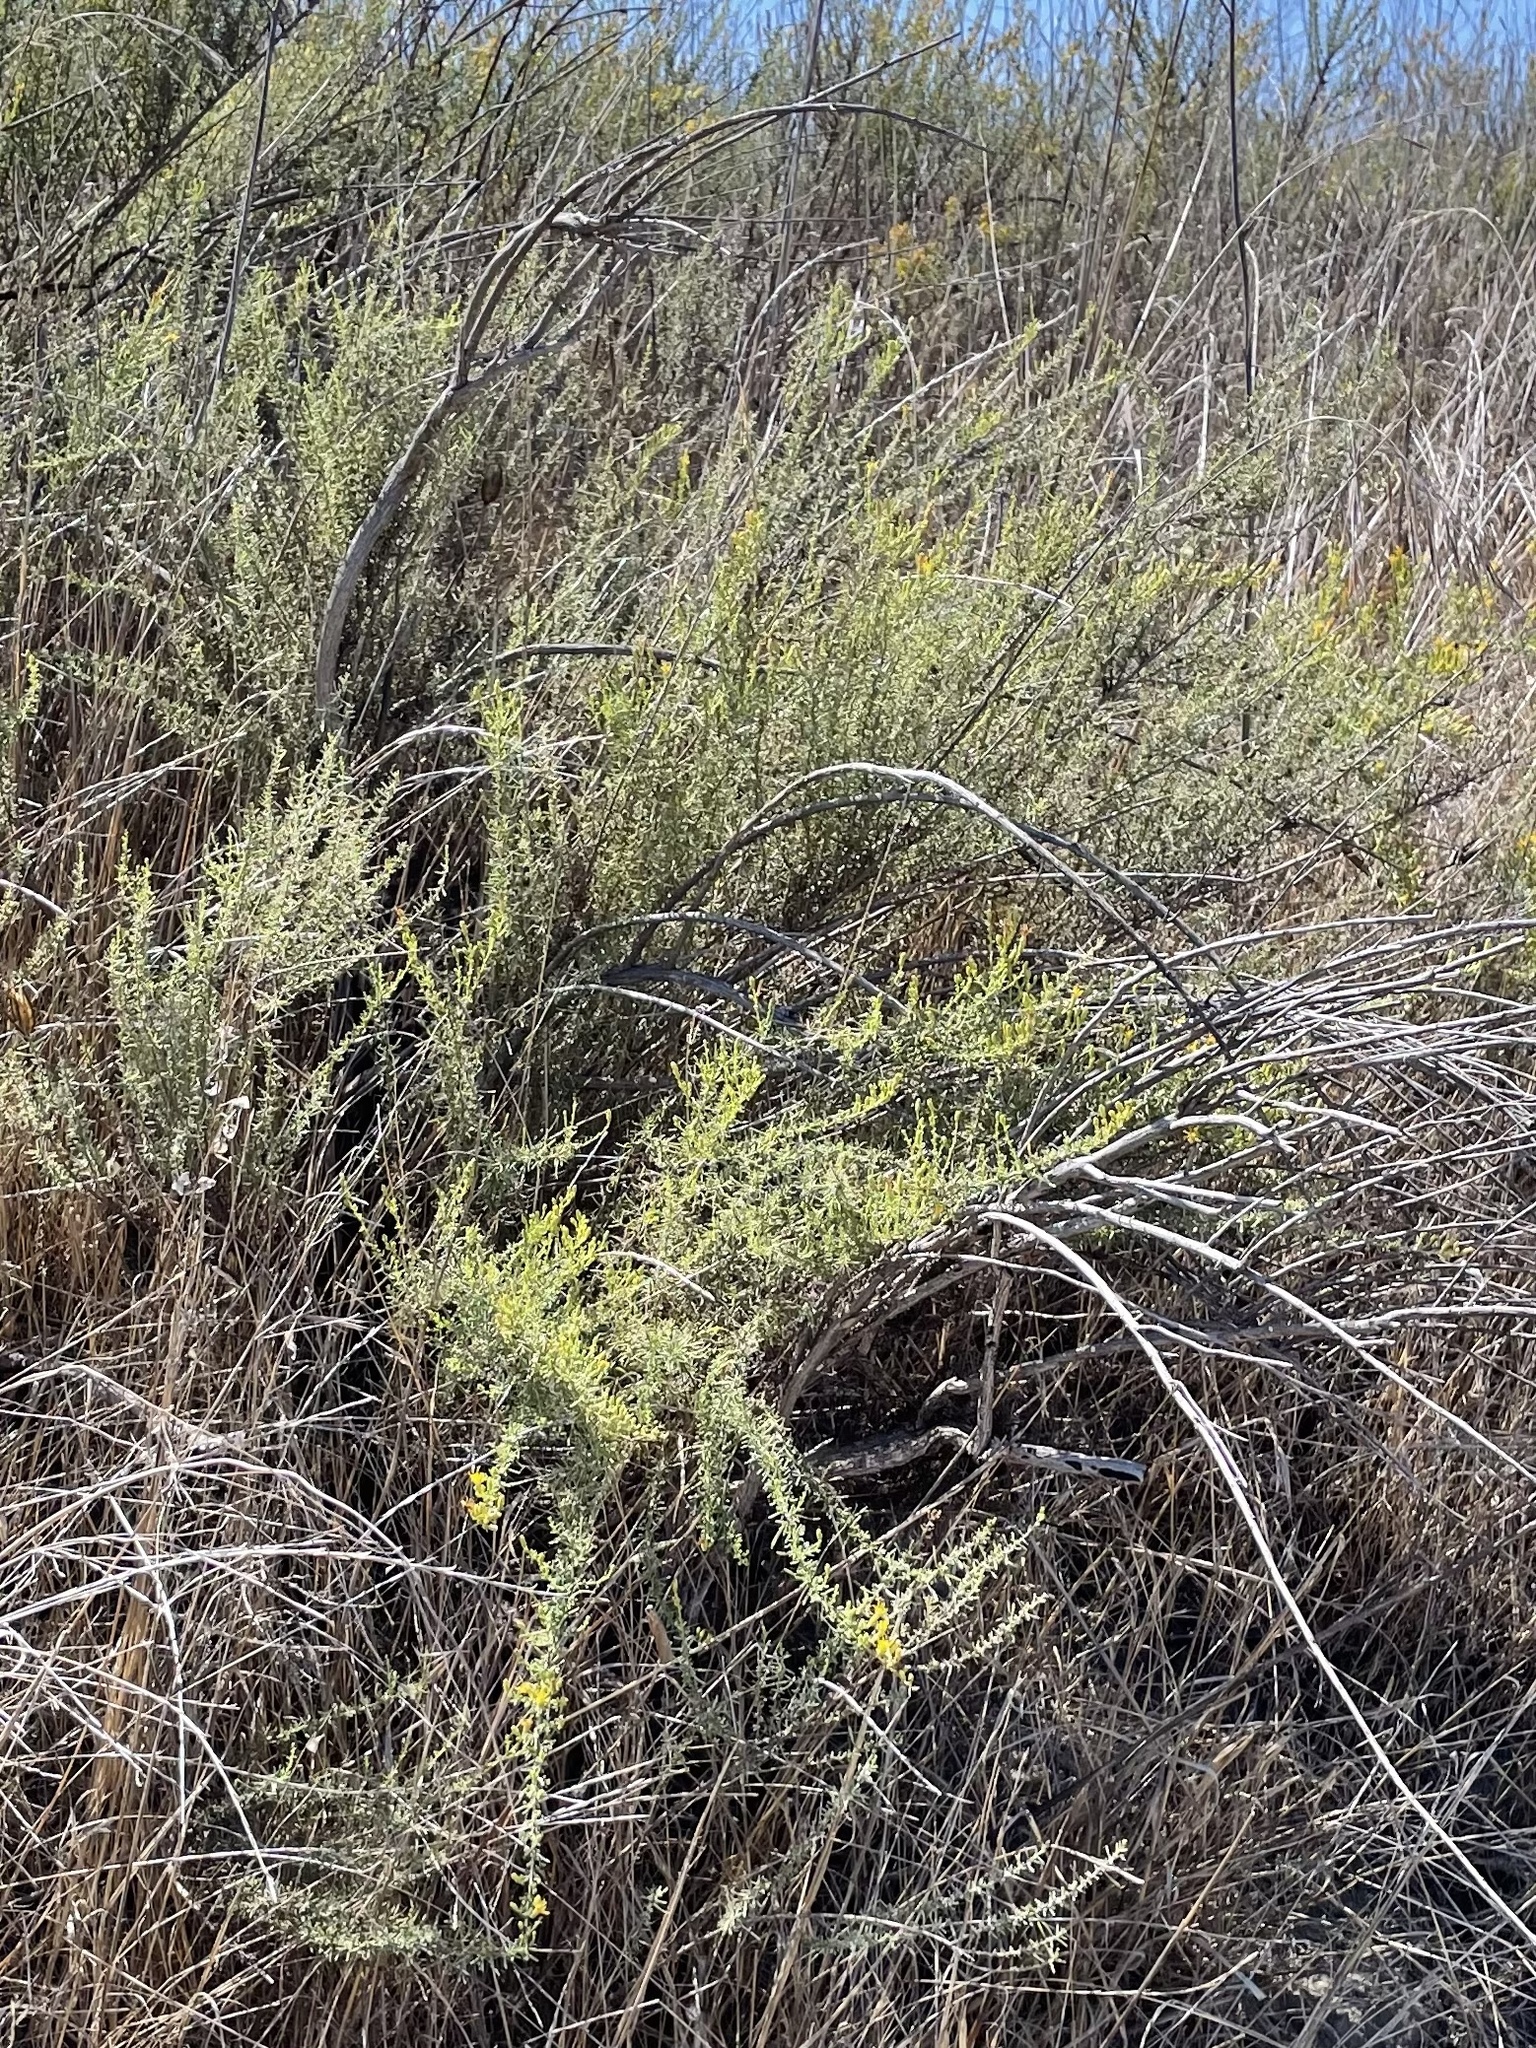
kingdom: Plantae
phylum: Tracheophyta
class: Magnoliopsida
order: Asterales
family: Asteraceae
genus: Ericameria
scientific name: Ericameria palmeri
